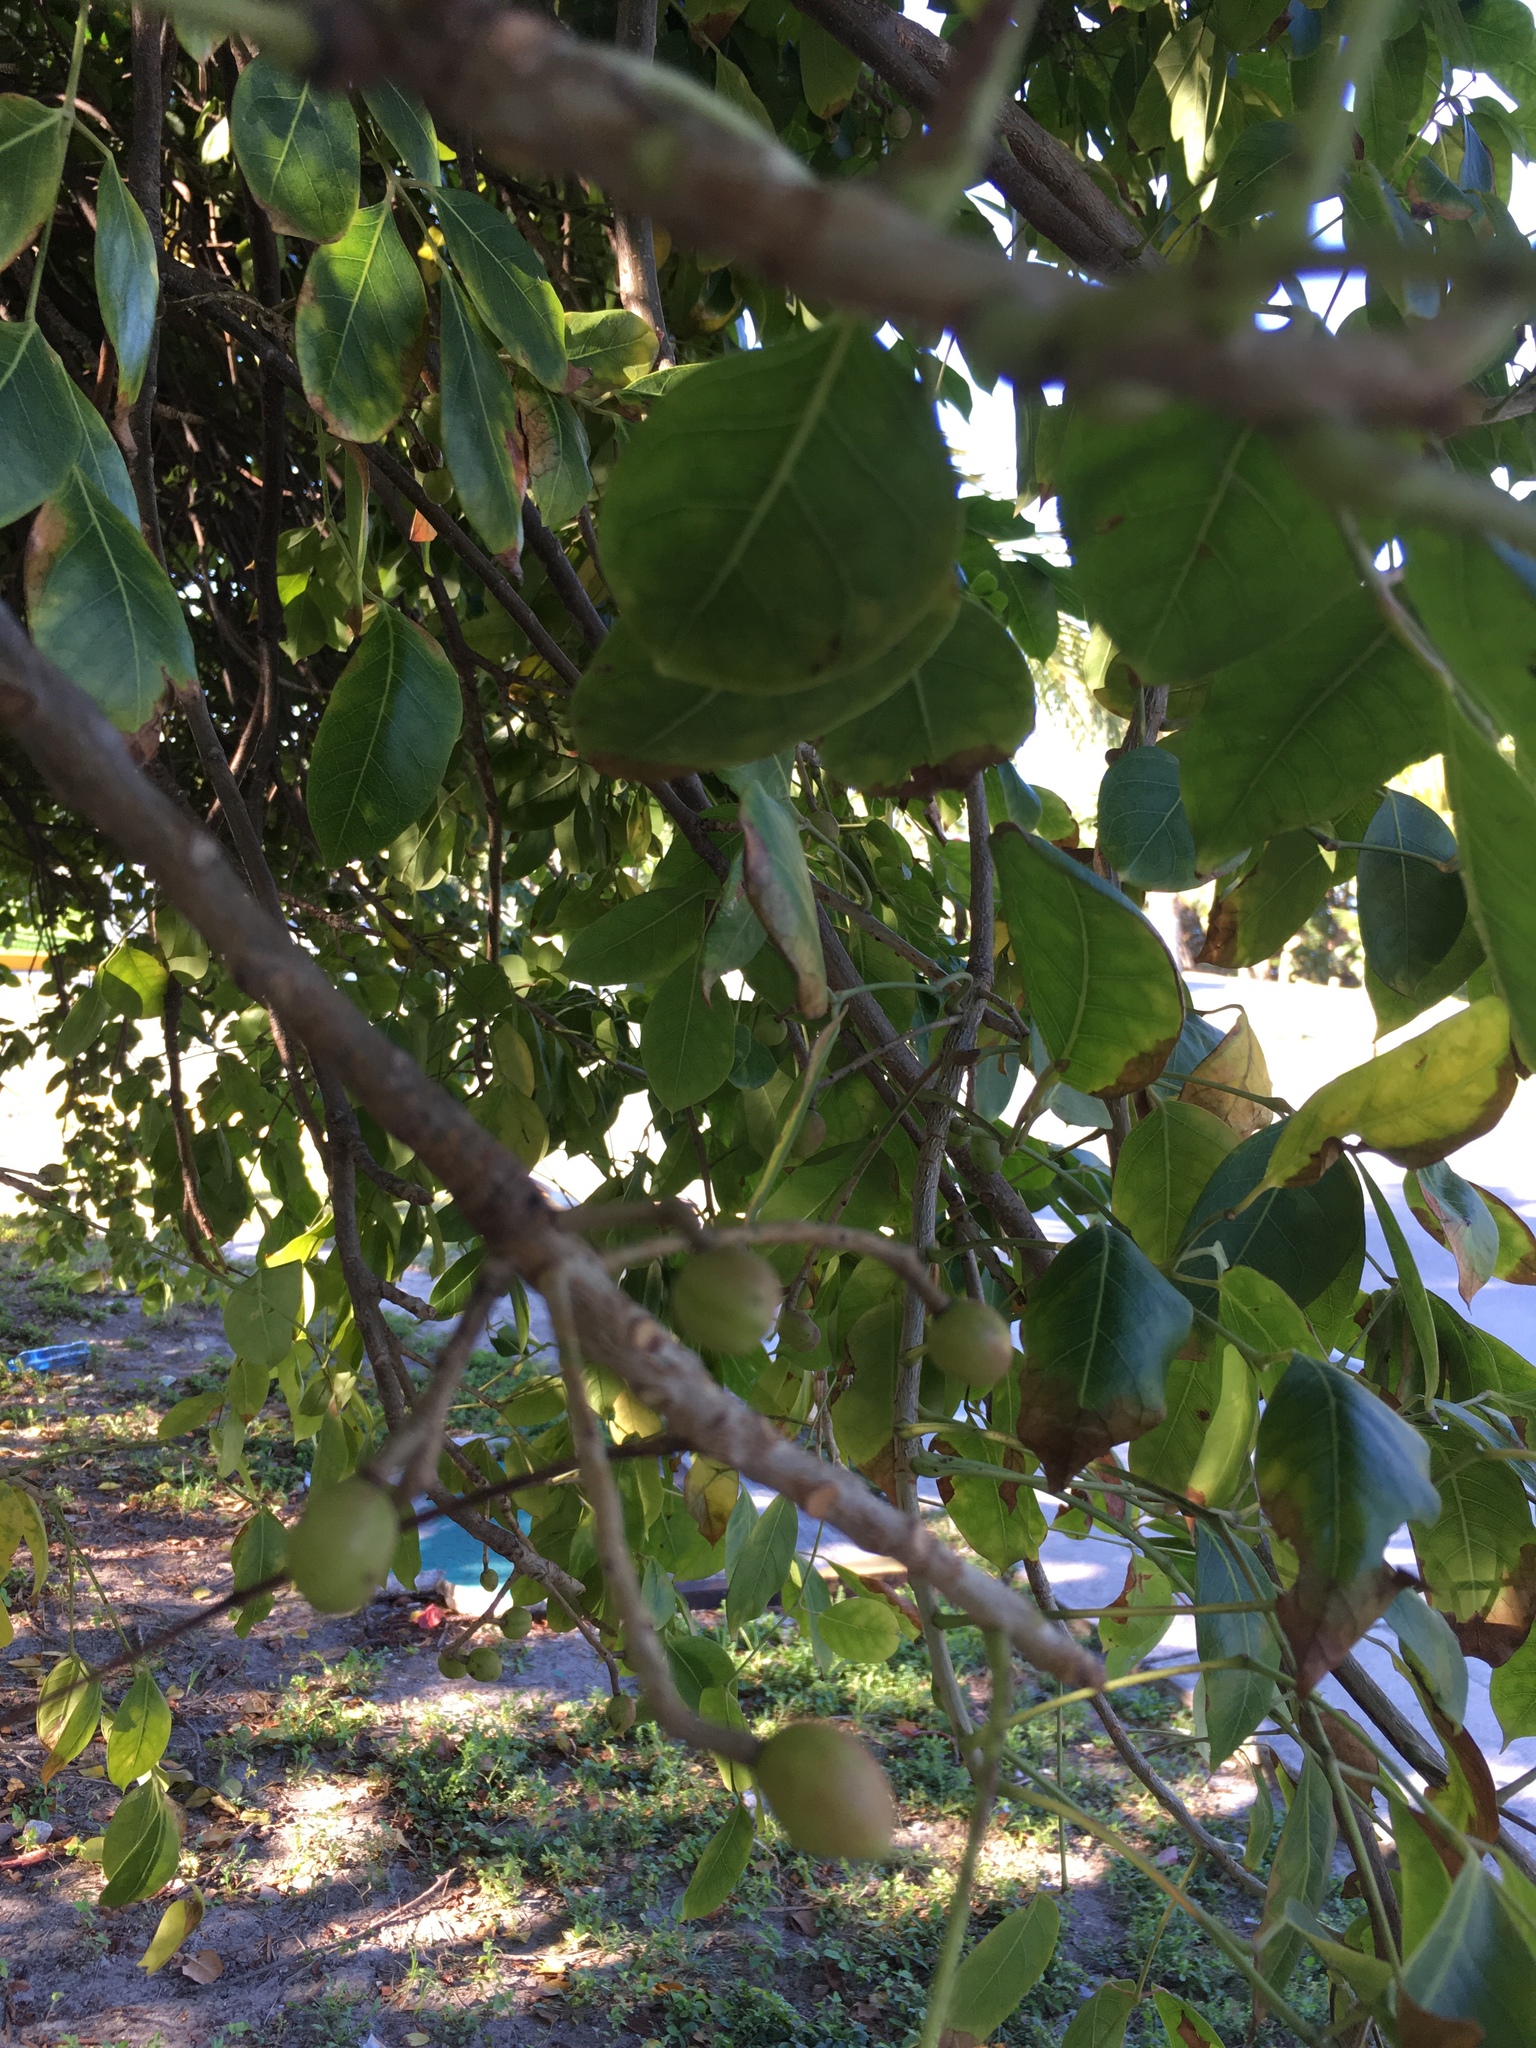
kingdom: Plantae
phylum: Tracheophyta
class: Magnoliopsida
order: Sapindales
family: Burseraceae
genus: Bursera
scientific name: Bursera simaruba
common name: Turpentine tree
